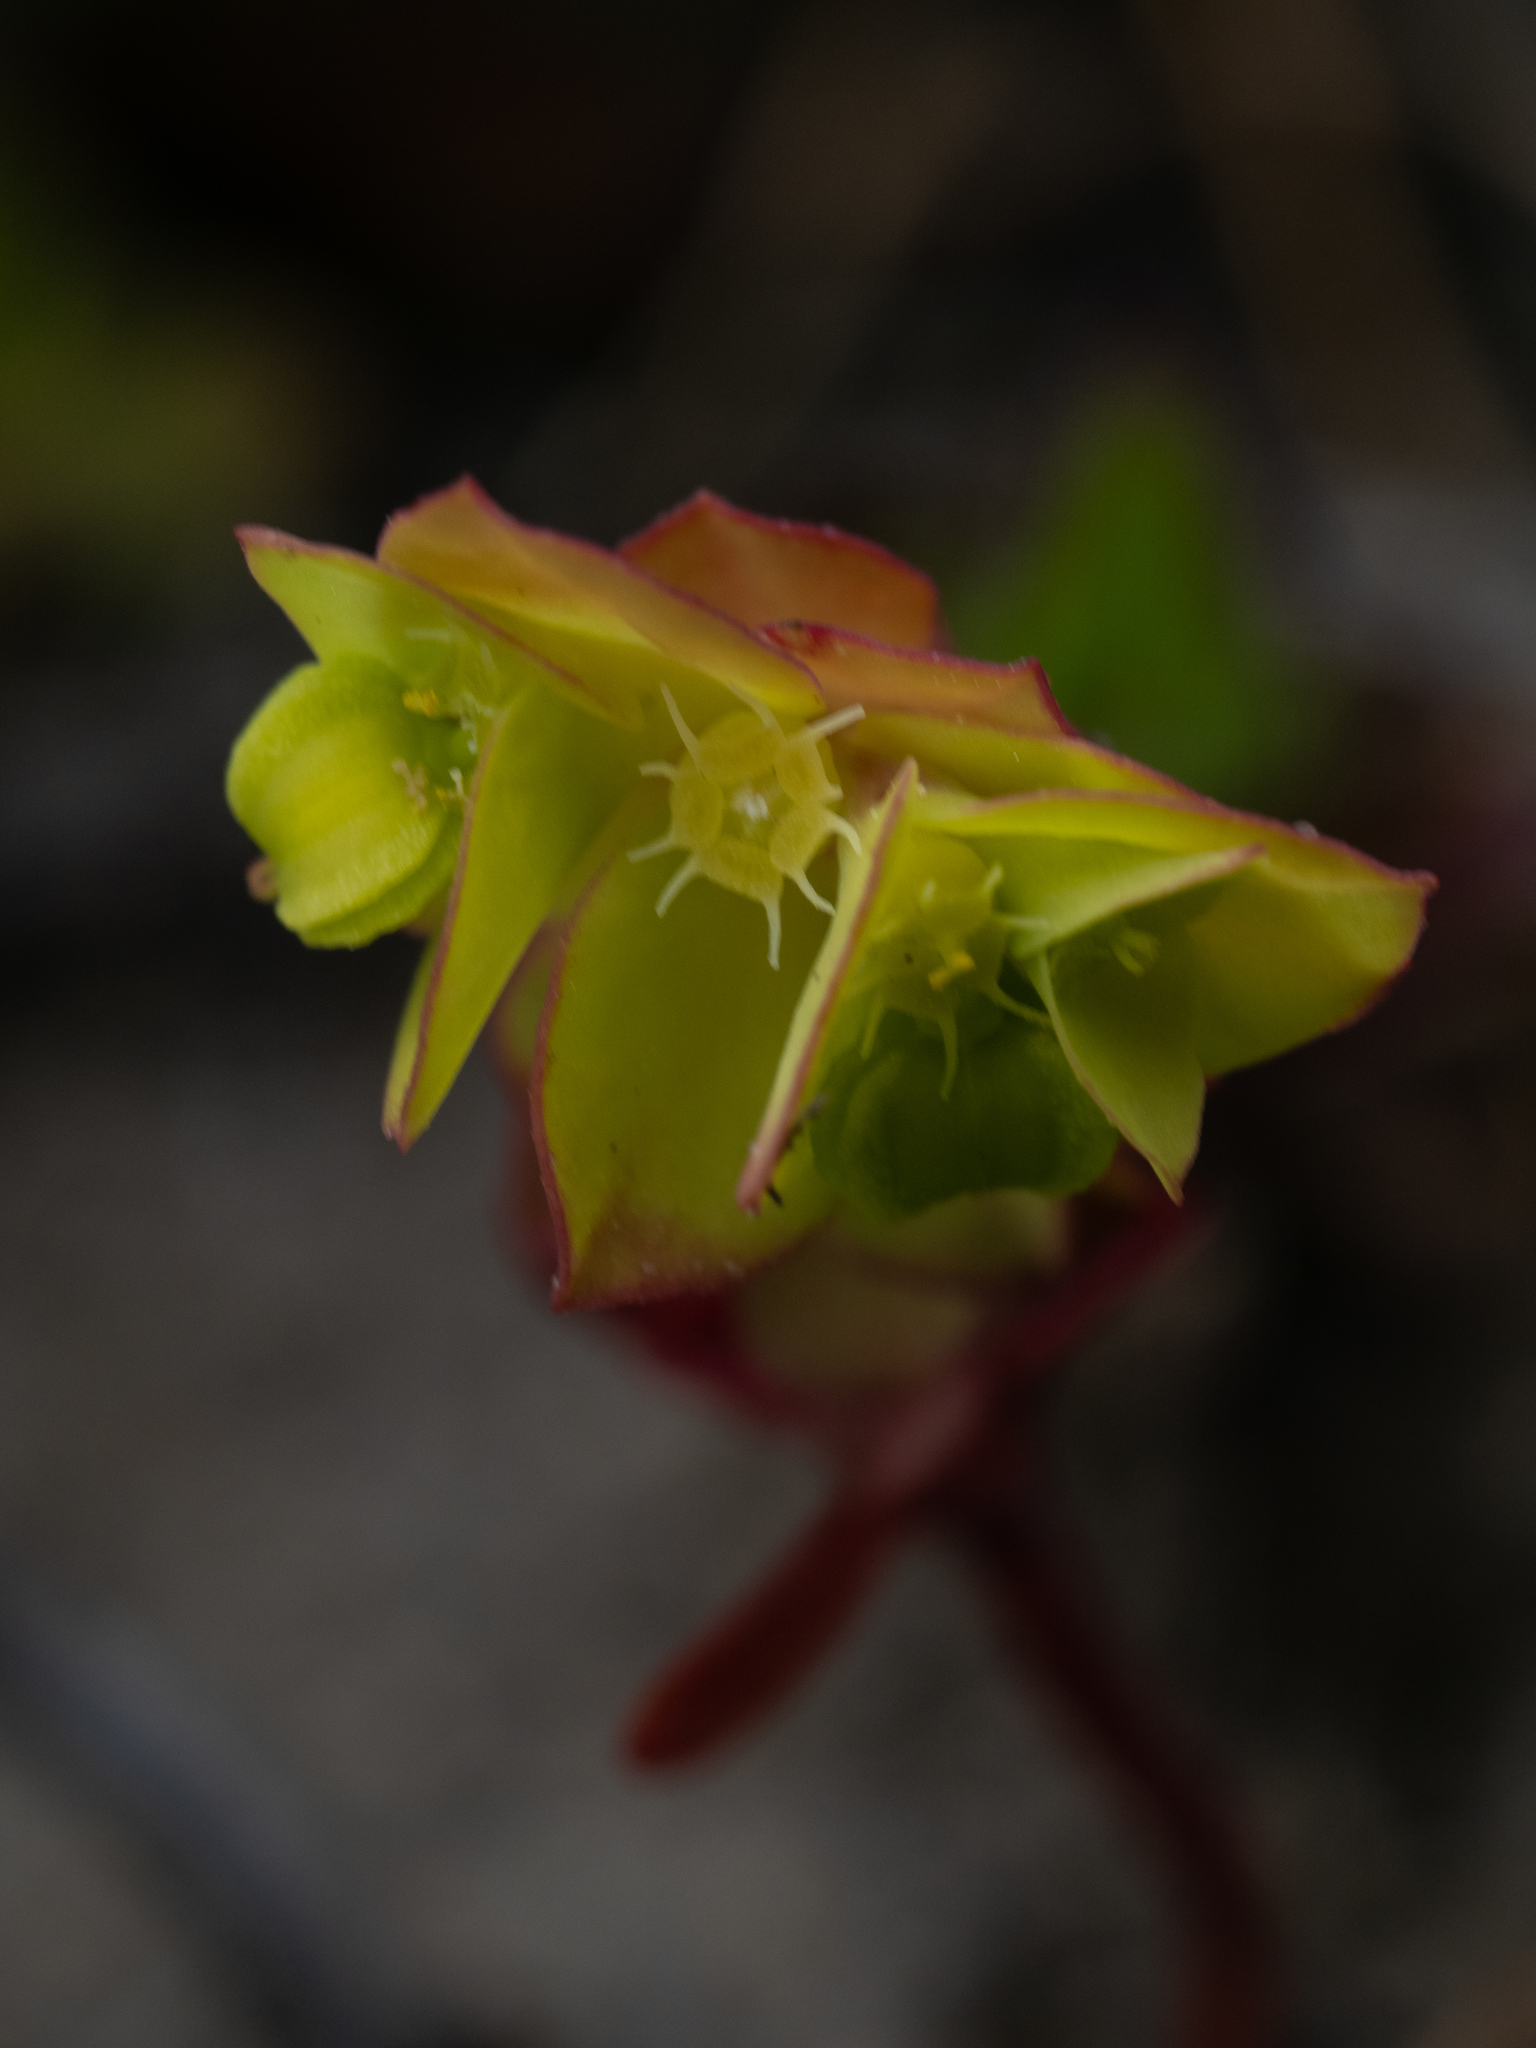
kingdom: Plantae
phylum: Tracheophyta
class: Magnoliopsida
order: Malpighiales
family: Euphorbiaceae
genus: Euphorbia
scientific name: Euphorbia peplus
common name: Petty spurge
